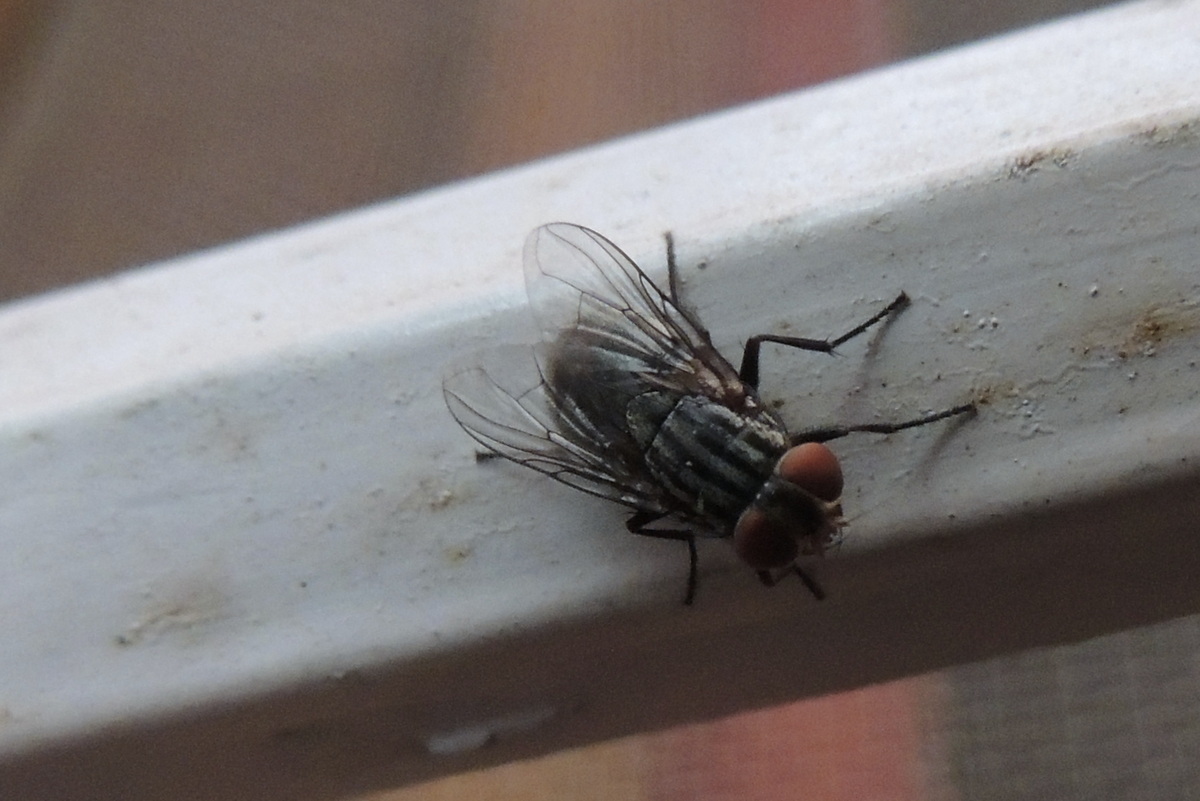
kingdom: Animalia
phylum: Arthropoda
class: Insecta
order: Diptera
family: Muscidae
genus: Synthesiomyia
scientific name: Synthesiomyia nudiseta
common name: Fly
